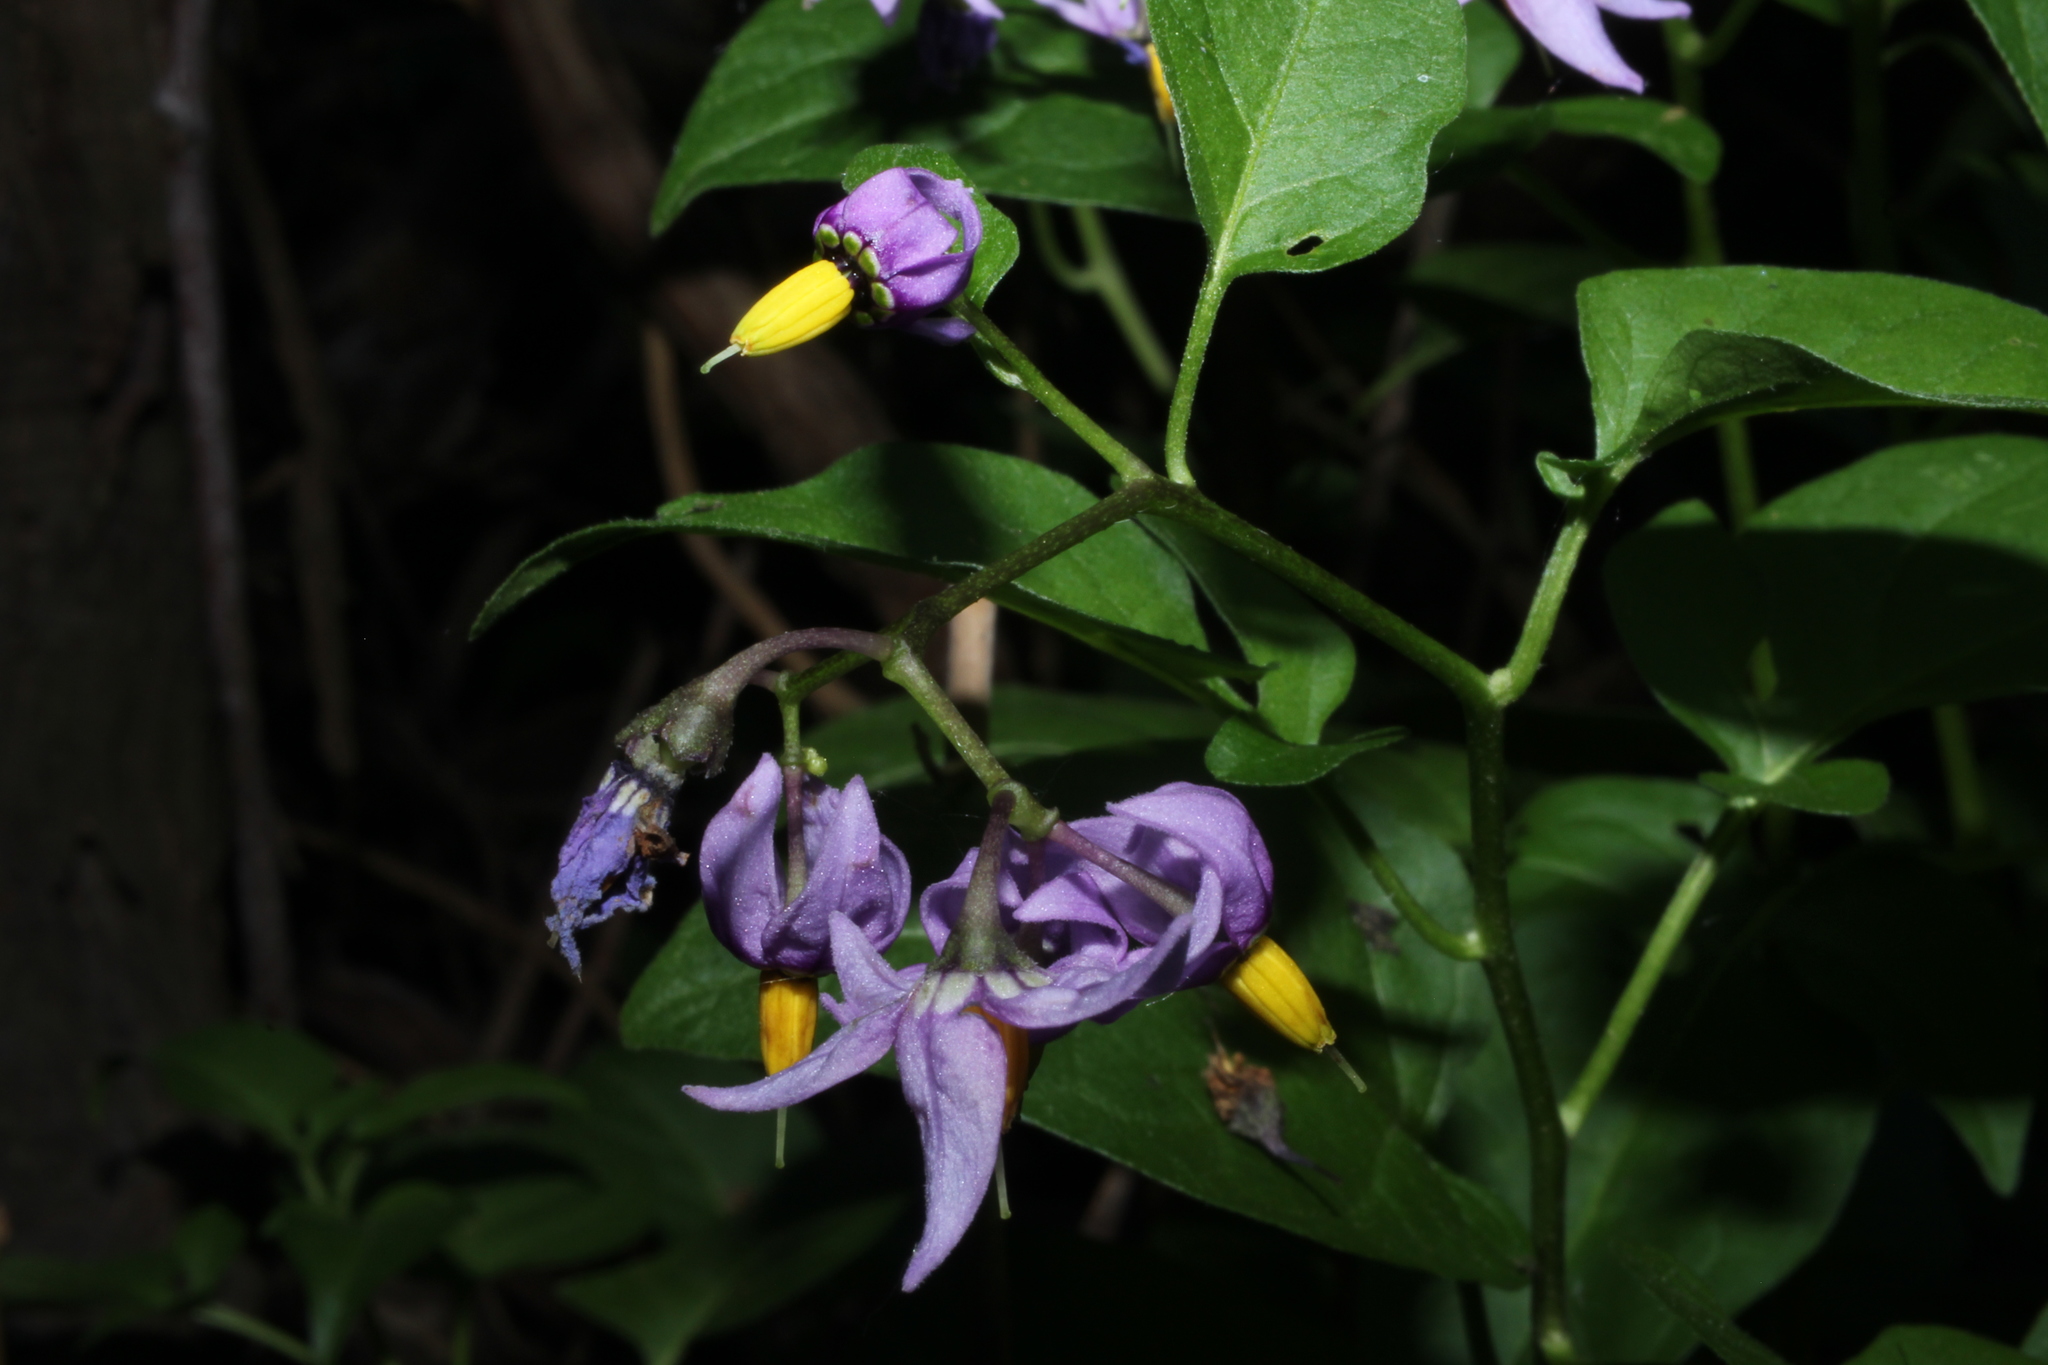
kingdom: Plantae
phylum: Tracheophyta
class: Magnoliopsida
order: Solanales
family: Solanaceae
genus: Solanum
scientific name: Solanum dulcamara
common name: Climbing nightshade
